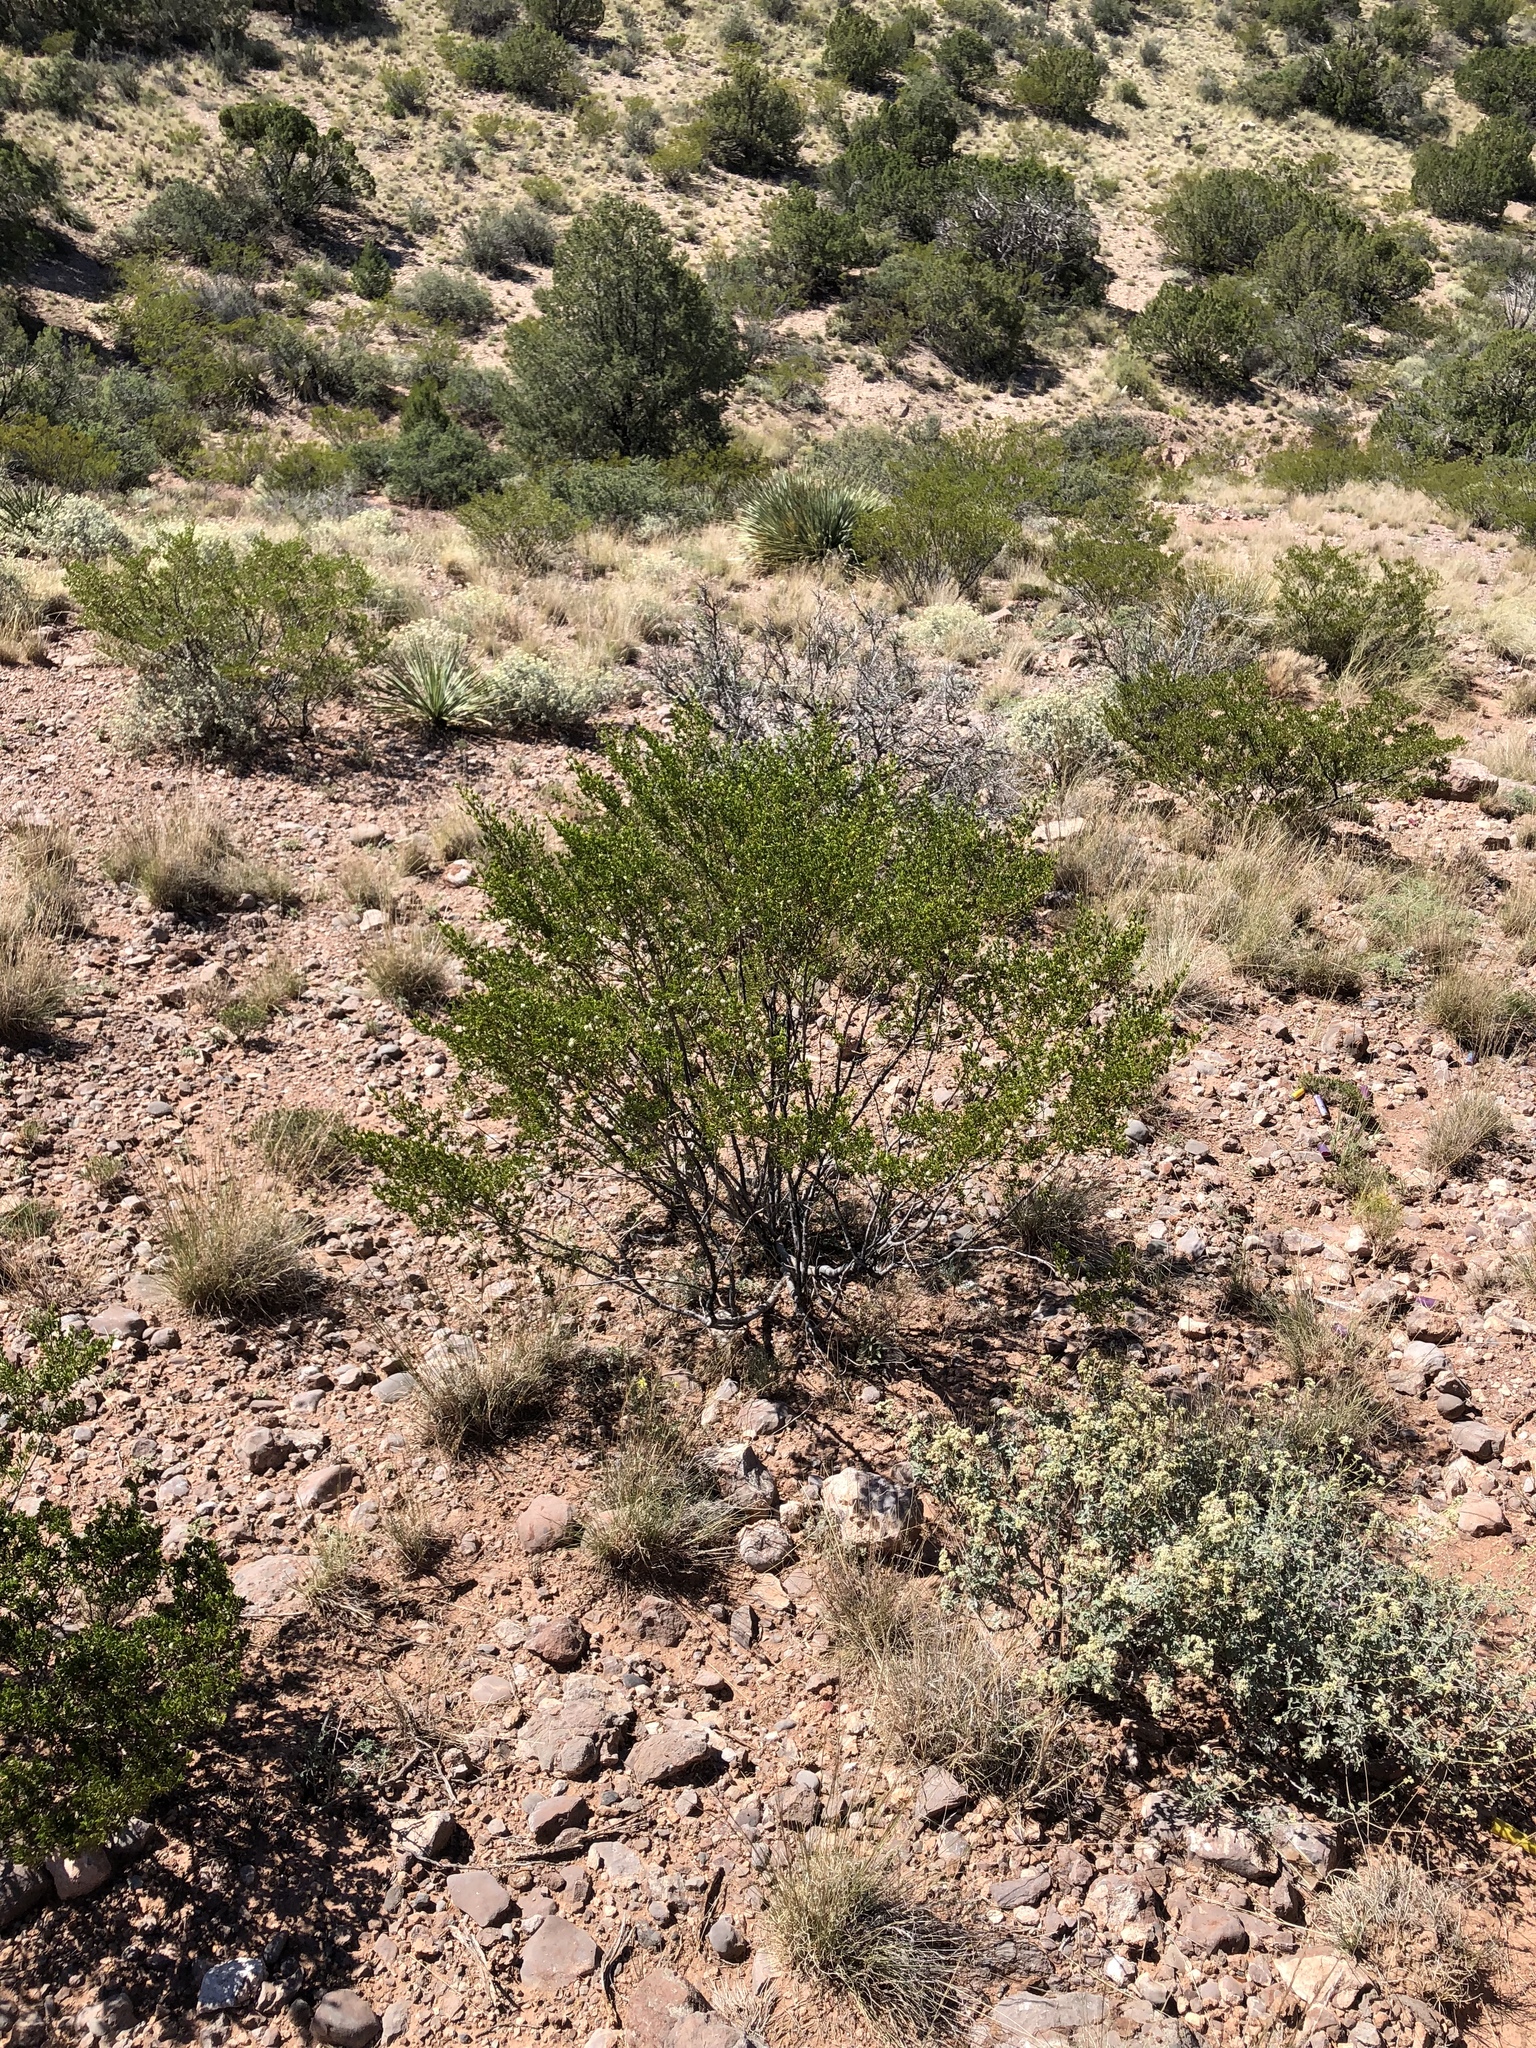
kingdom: Plantae
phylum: Tracheophyta
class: Magnoliopsida
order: Zygophyllales
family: Zygophyllaceae
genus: Larrea
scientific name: Larrea tridentata
